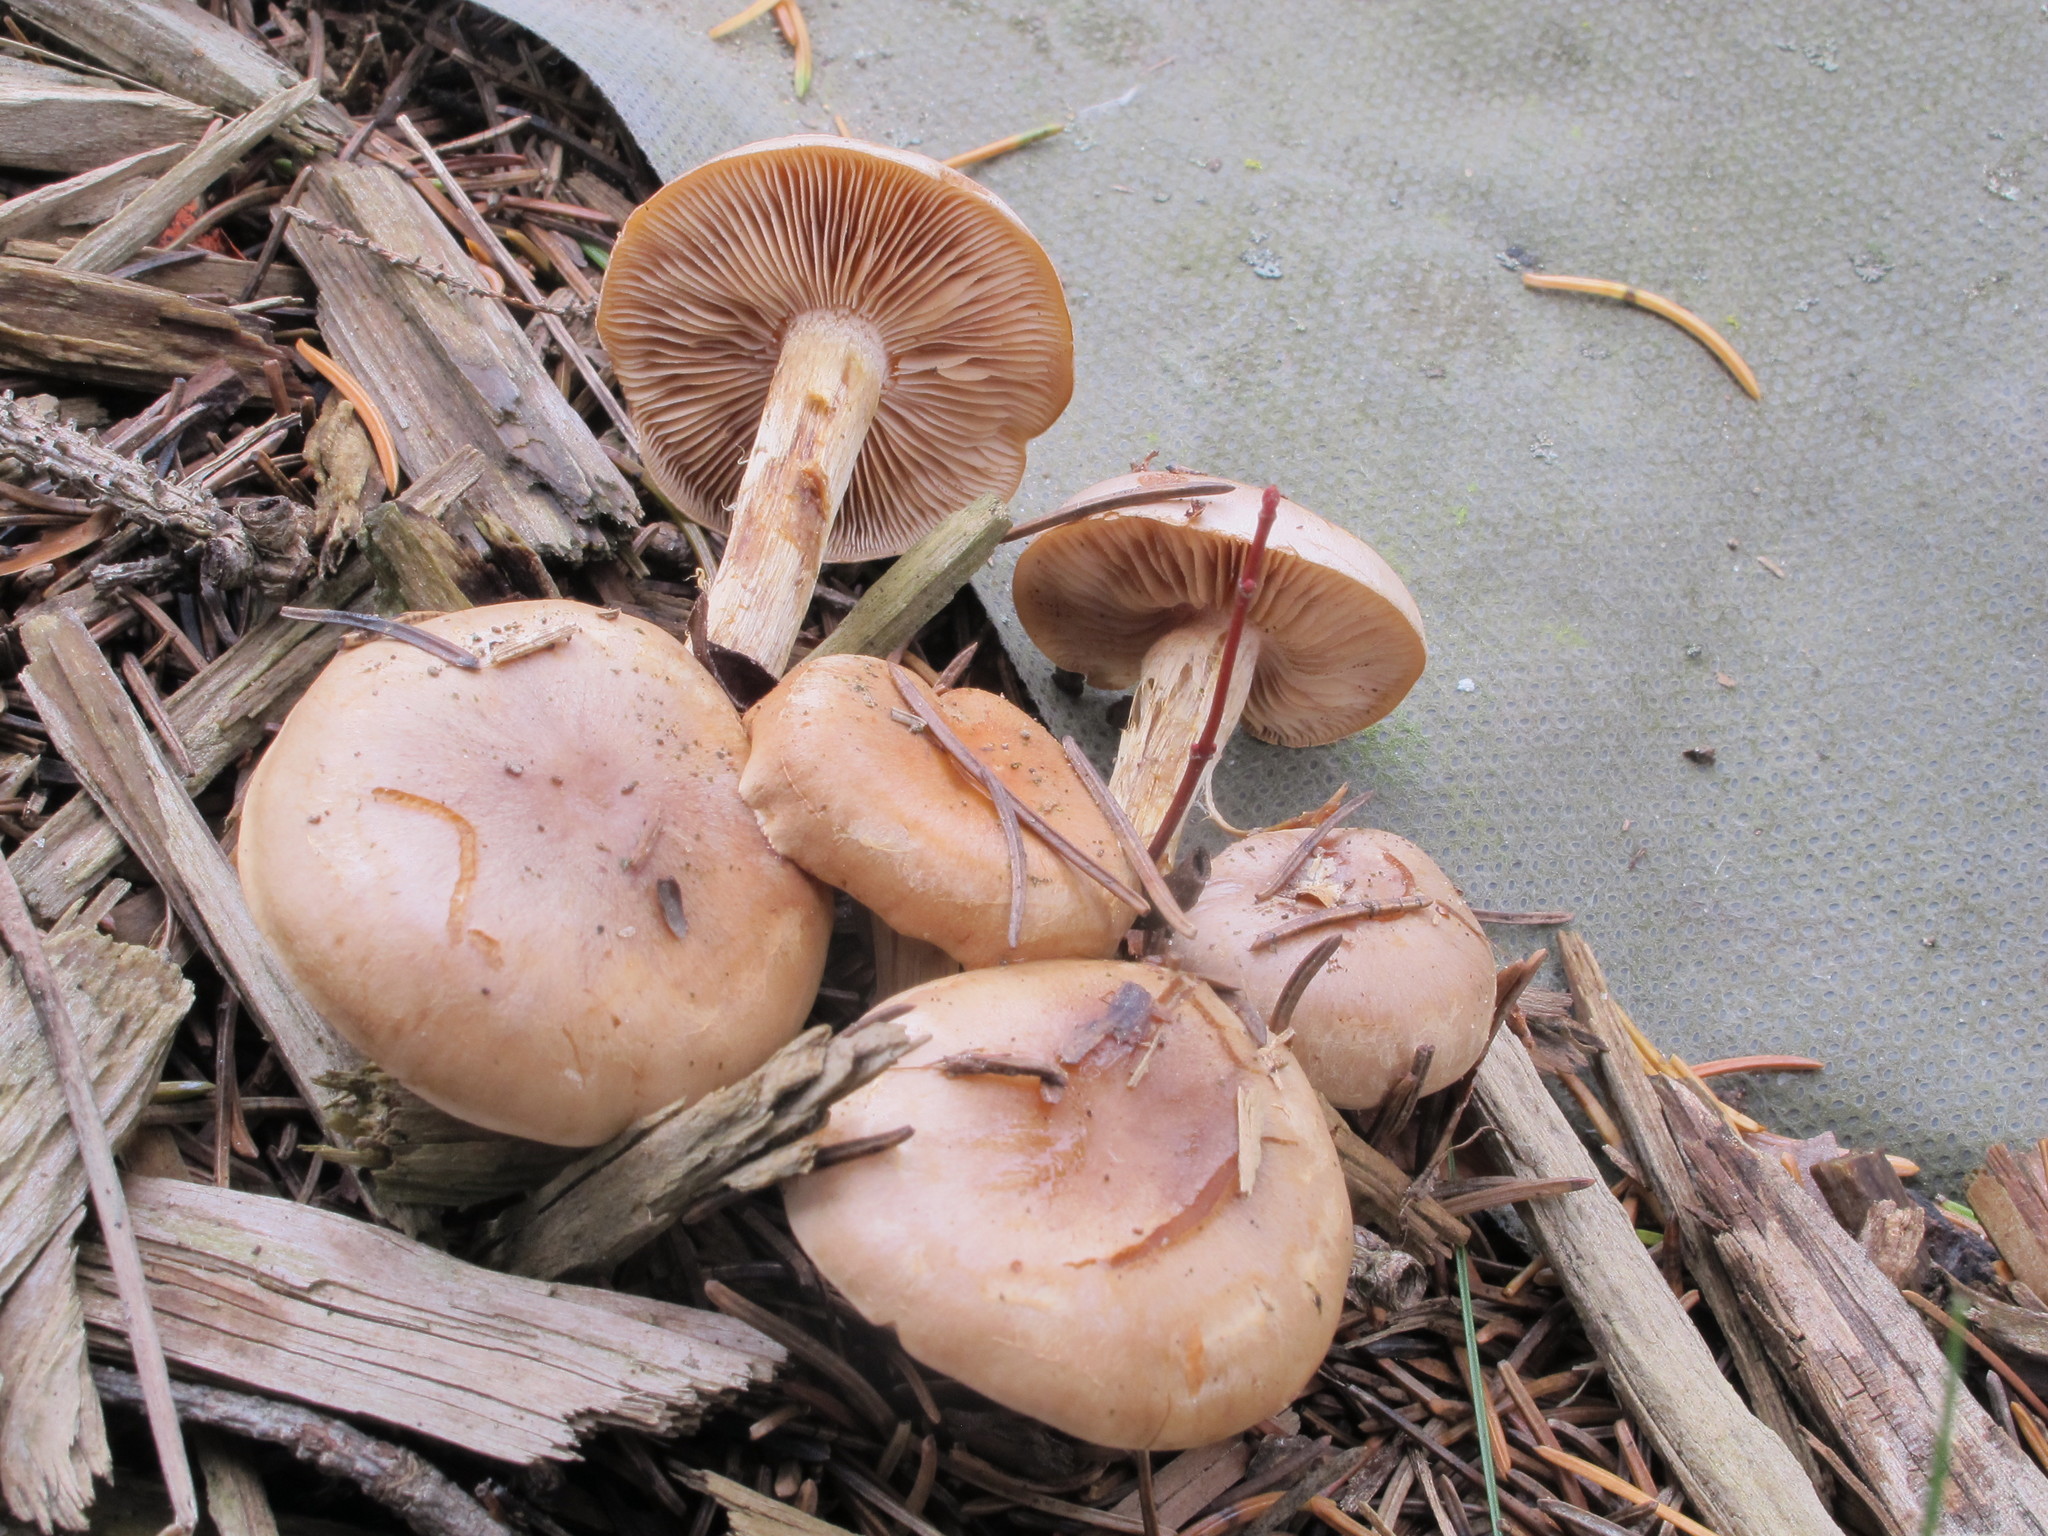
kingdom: Fungi
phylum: Basidiomycota
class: Agaricomycetes
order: Agaricales
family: Hymenogastraceae
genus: Hebeloma
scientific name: Hebeloma excedens
